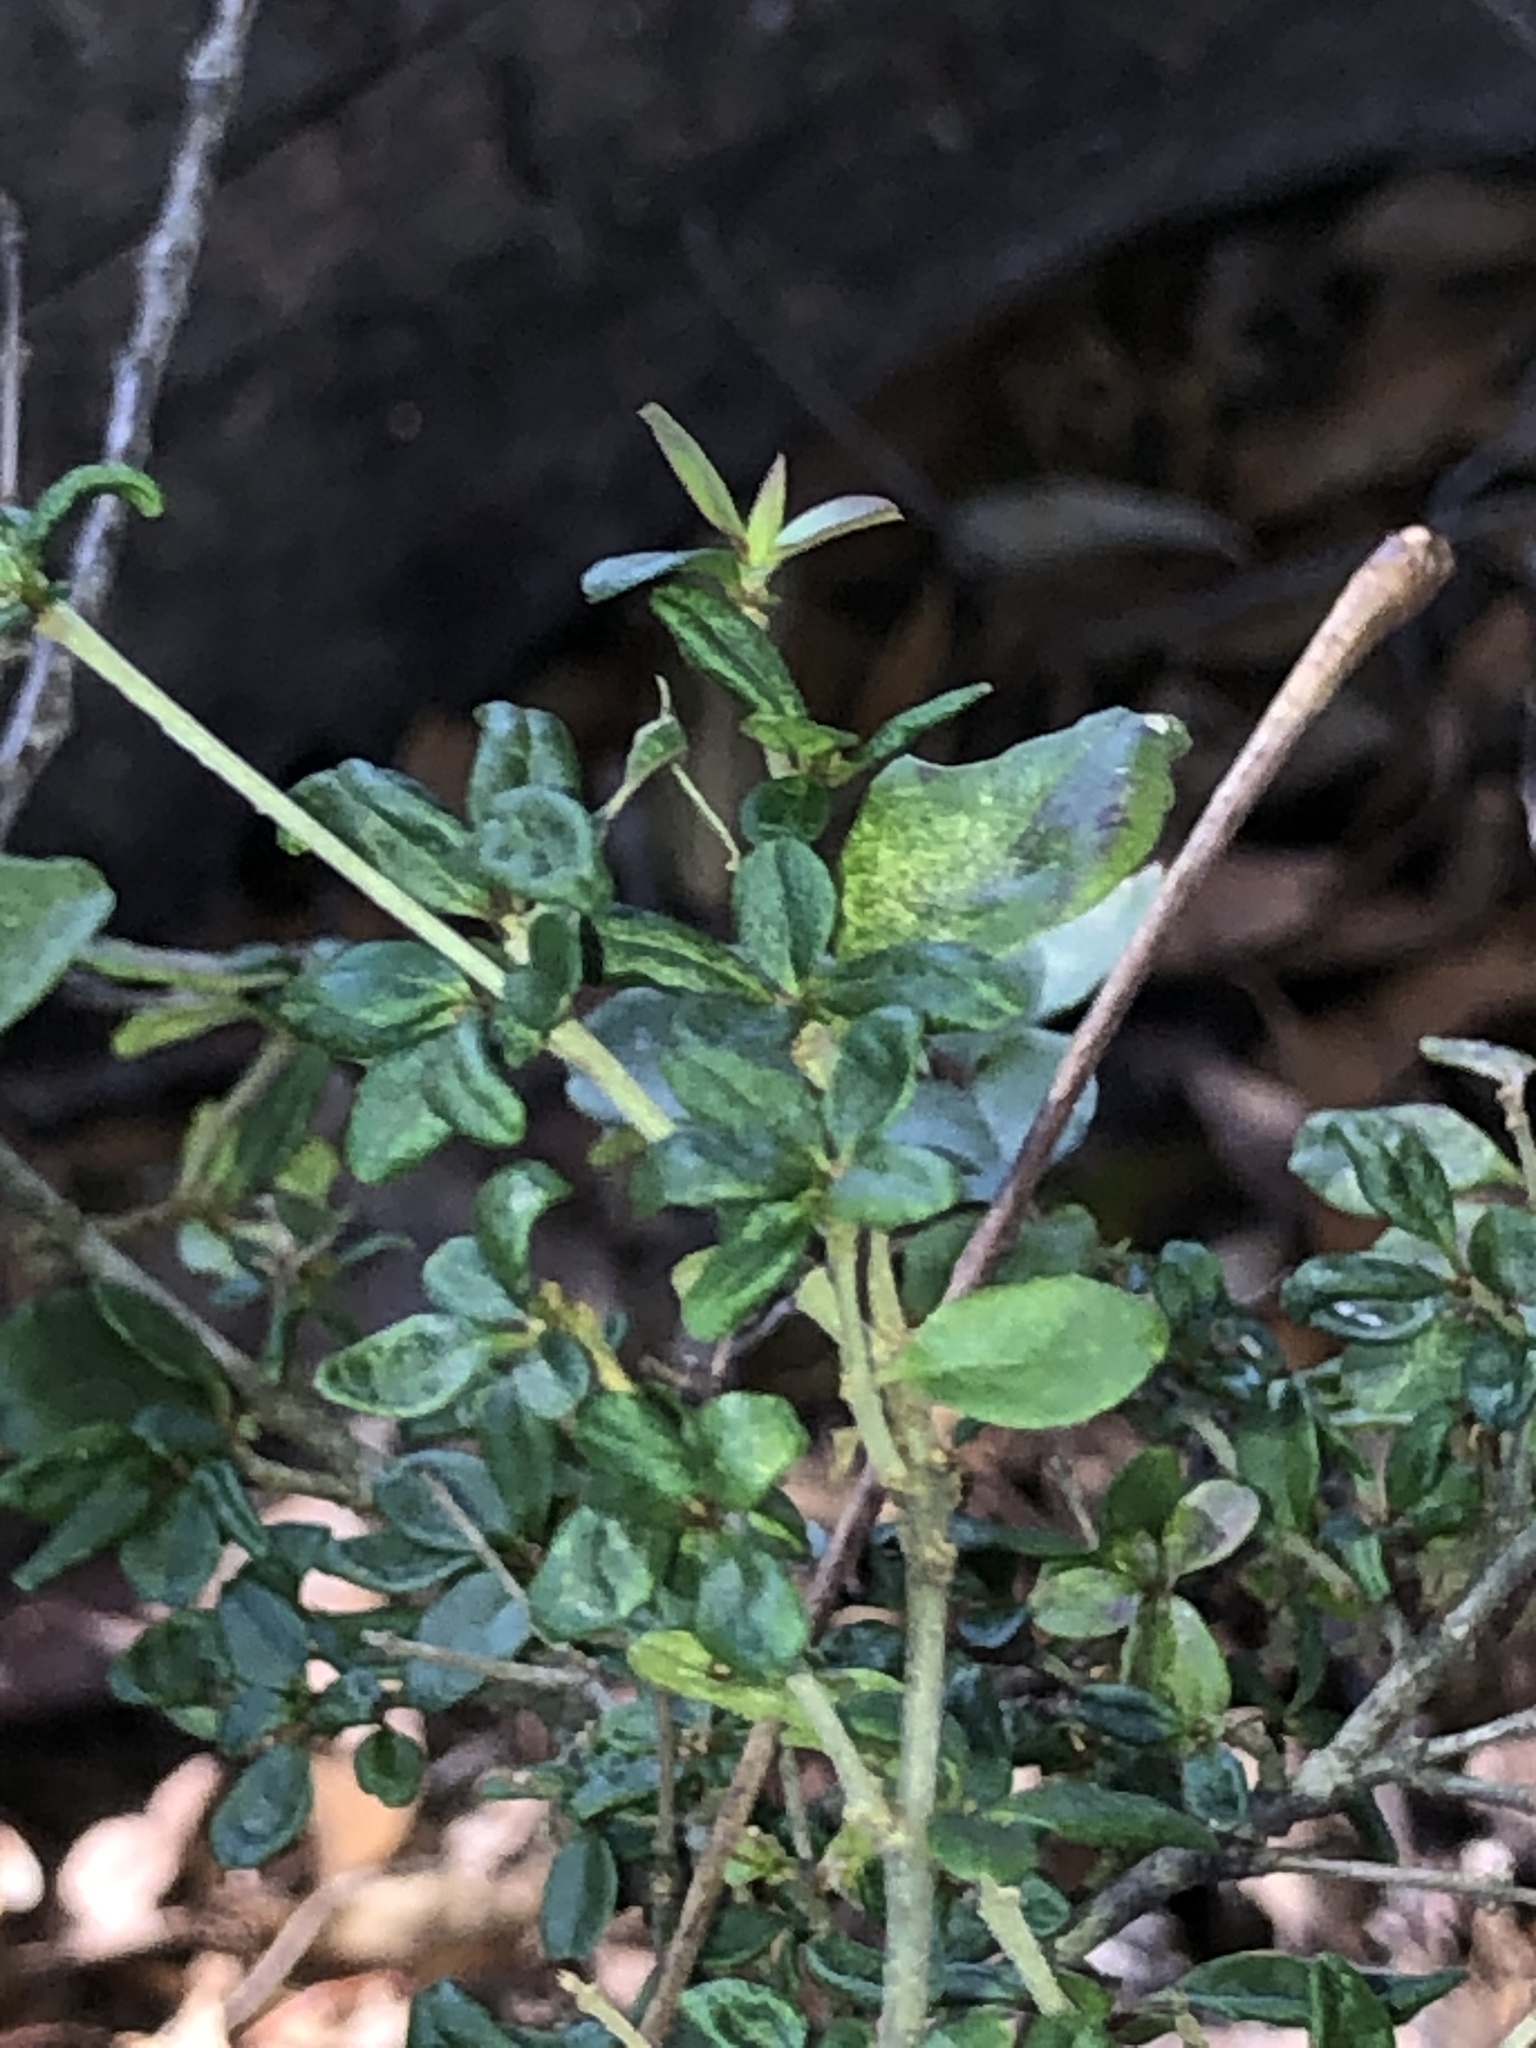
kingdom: Plantae
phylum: Tracheophyta
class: Magnoliopsida
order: Lamiales
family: Oleaceae
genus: Ligustrum
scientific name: Ligustrum sinense
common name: Chinese privet
